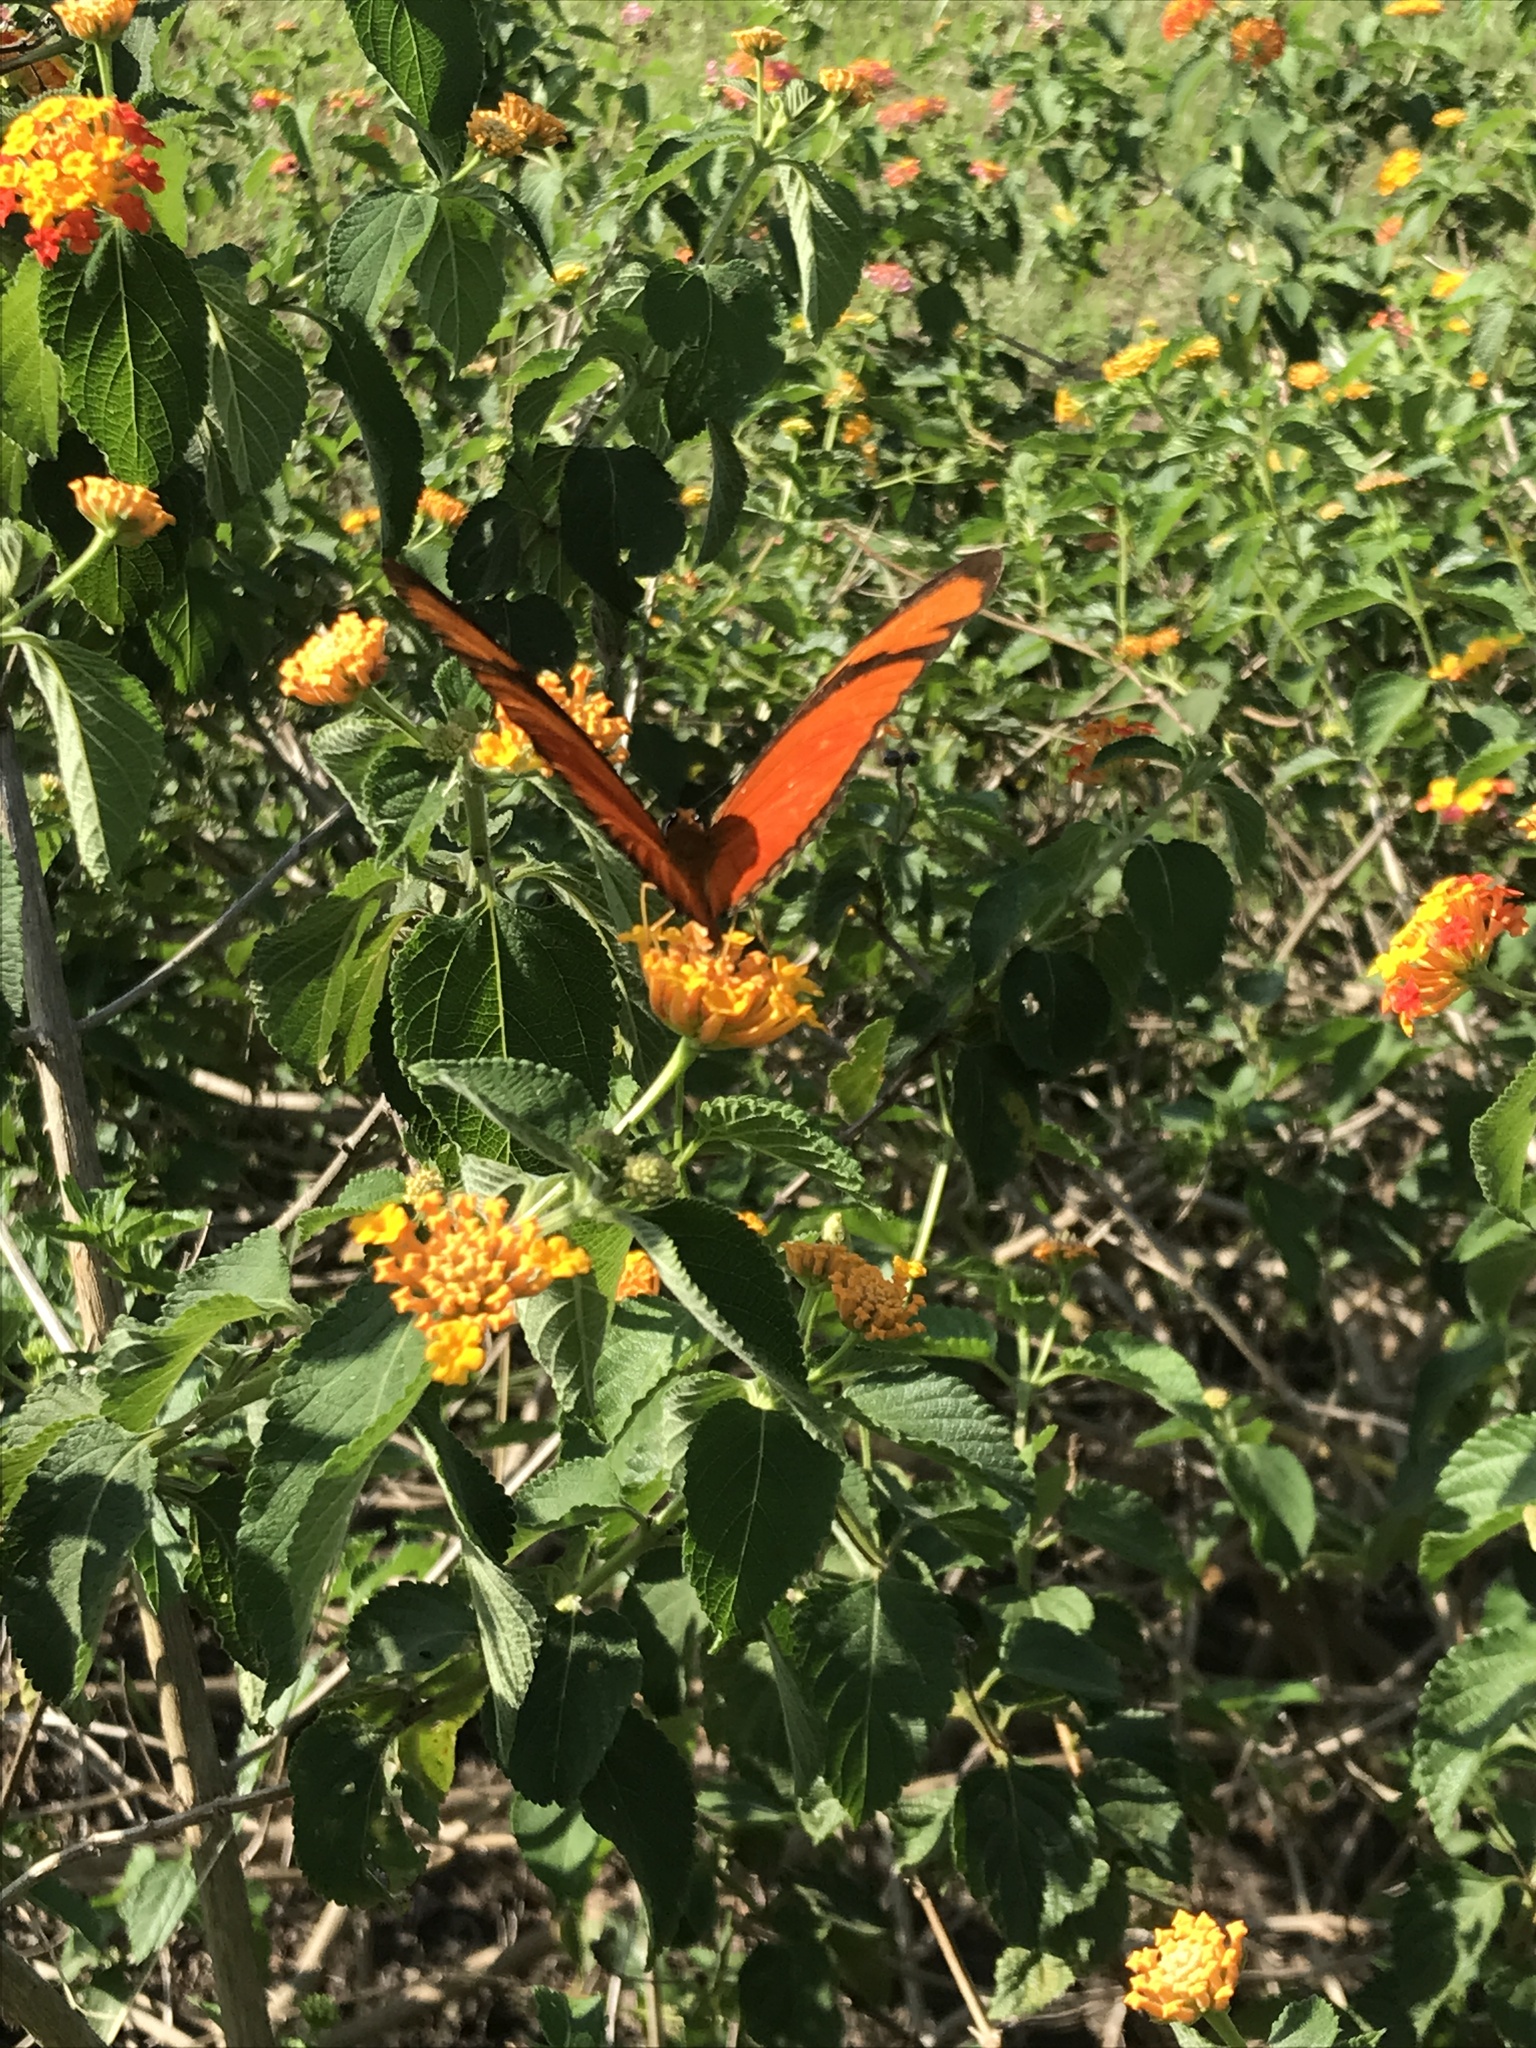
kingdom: Animalia
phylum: Arthropoda
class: Insecta
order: Lepidoptera
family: Nymphalidae
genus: Dryas
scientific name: Dryas iulia
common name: Flambeau
